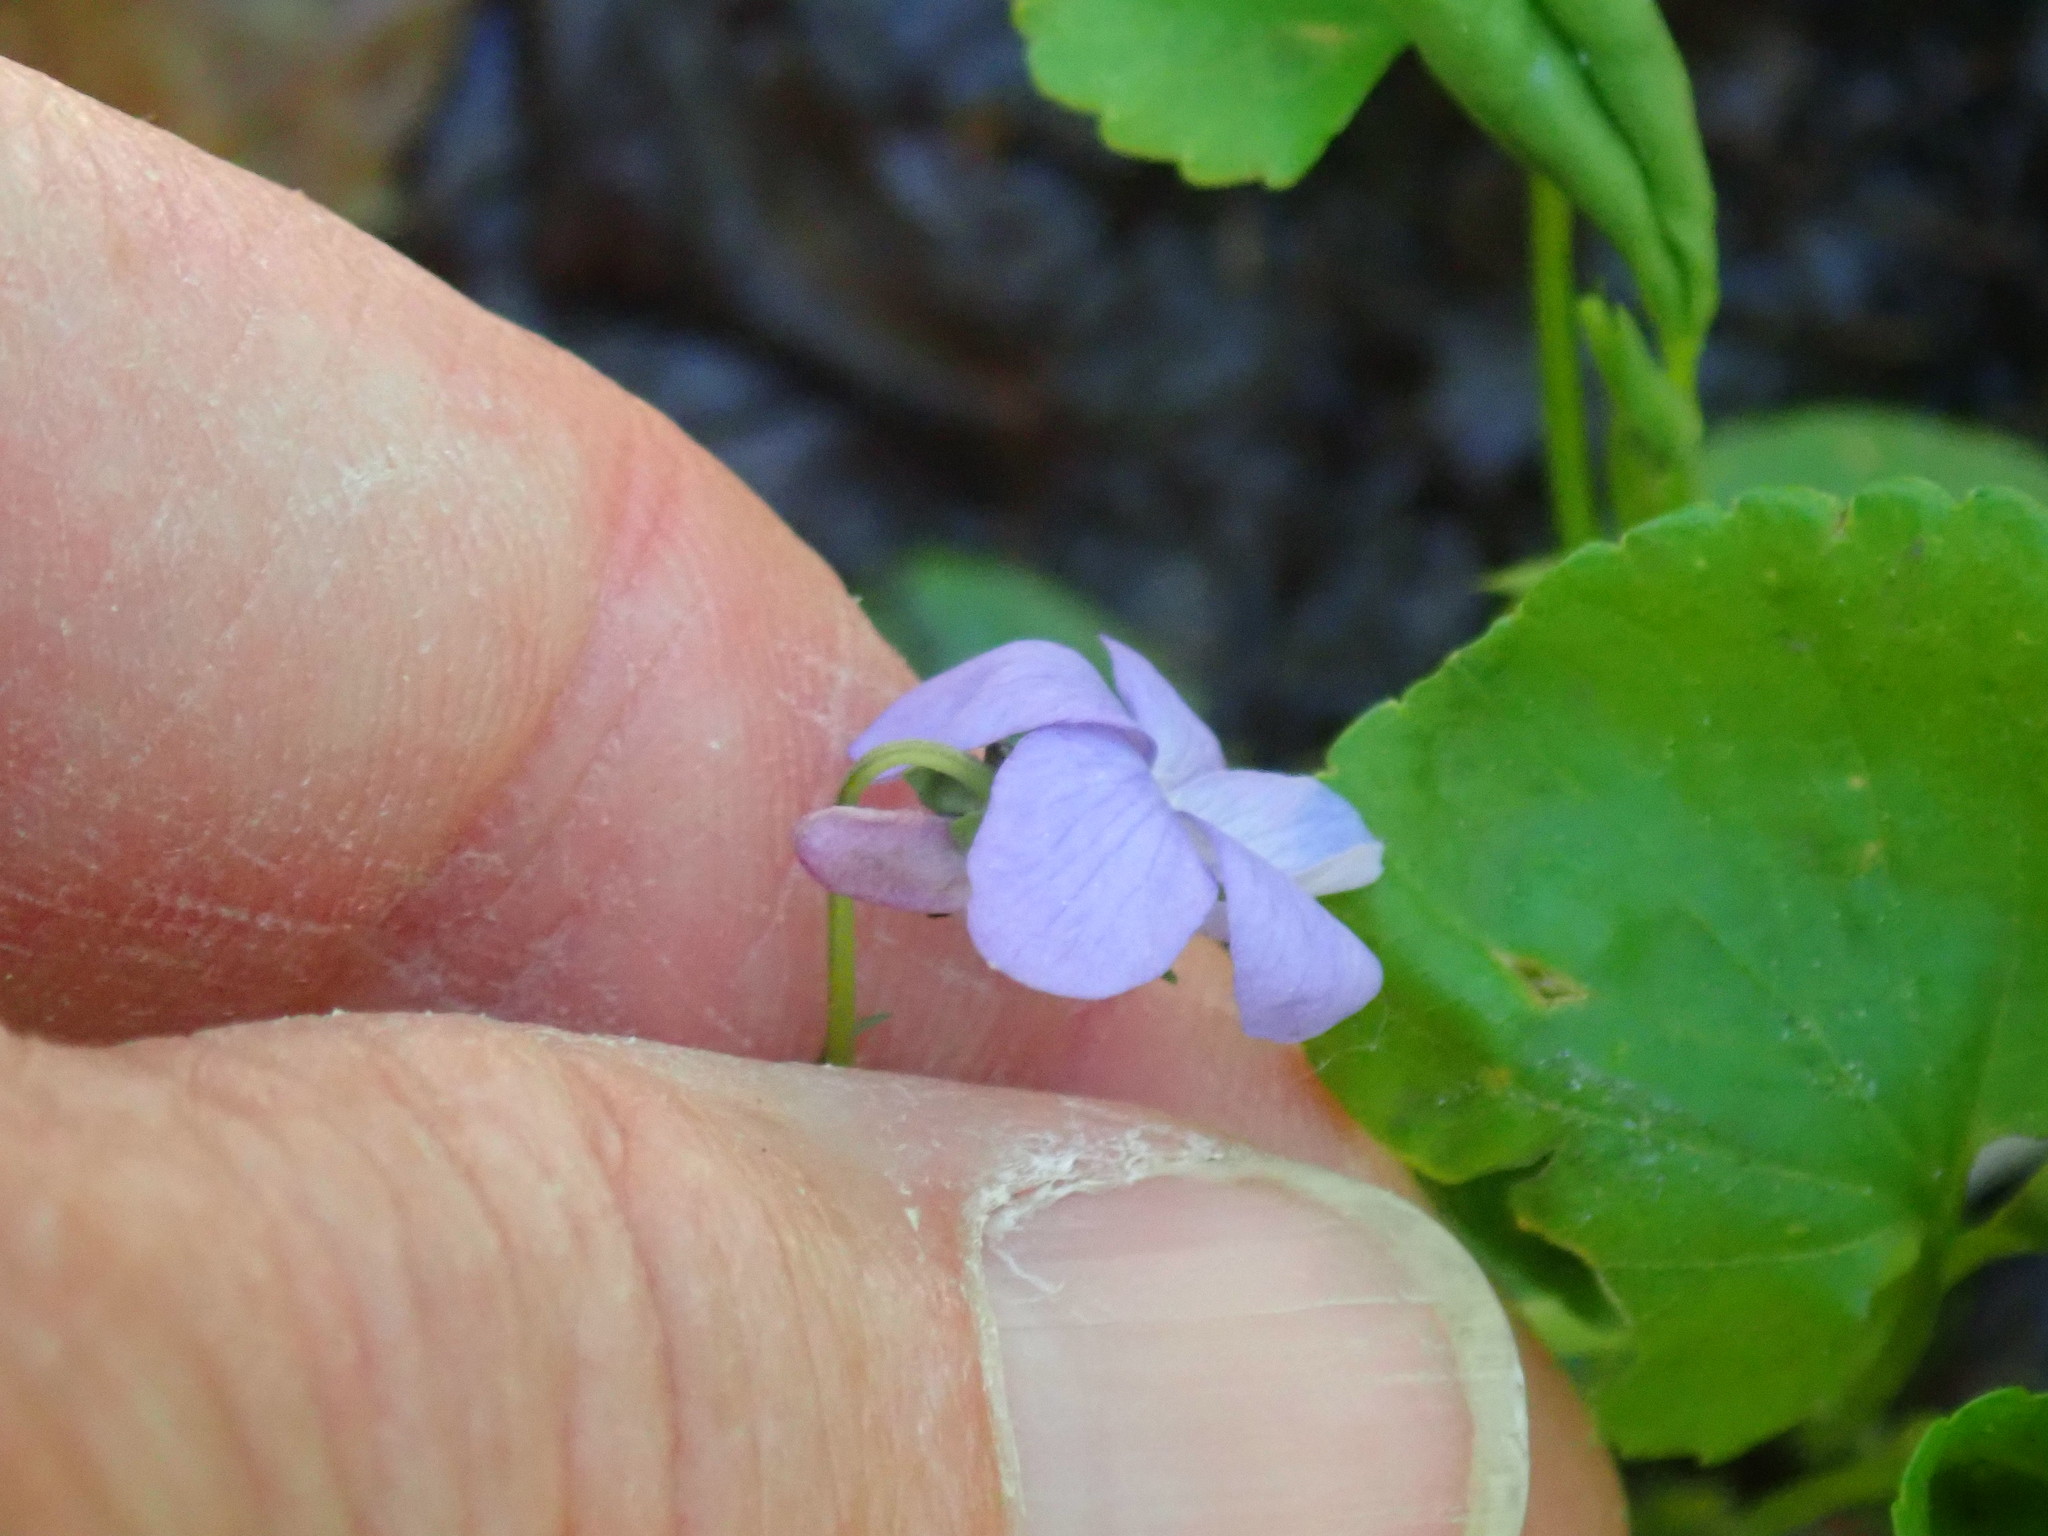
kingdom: Plantae
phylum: Tracheophyta
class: Magnoliopsida
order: Malpighiales
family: Violaceae
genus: Viola
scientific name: Viola rostrata
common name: Long-spur violet
